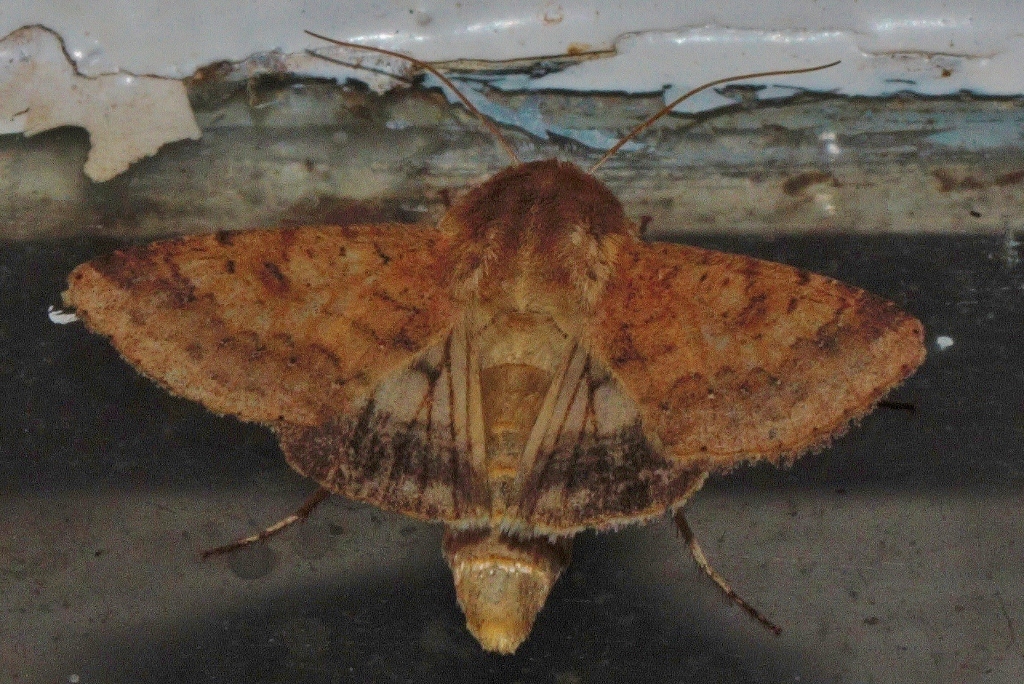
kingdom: Animalia
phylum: Arthropoda
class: Insecta
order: Lepidoptera
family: Noctuidae
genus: Helicoverpa
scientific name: Helicoverpa armigera
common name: Cotton bollworm
